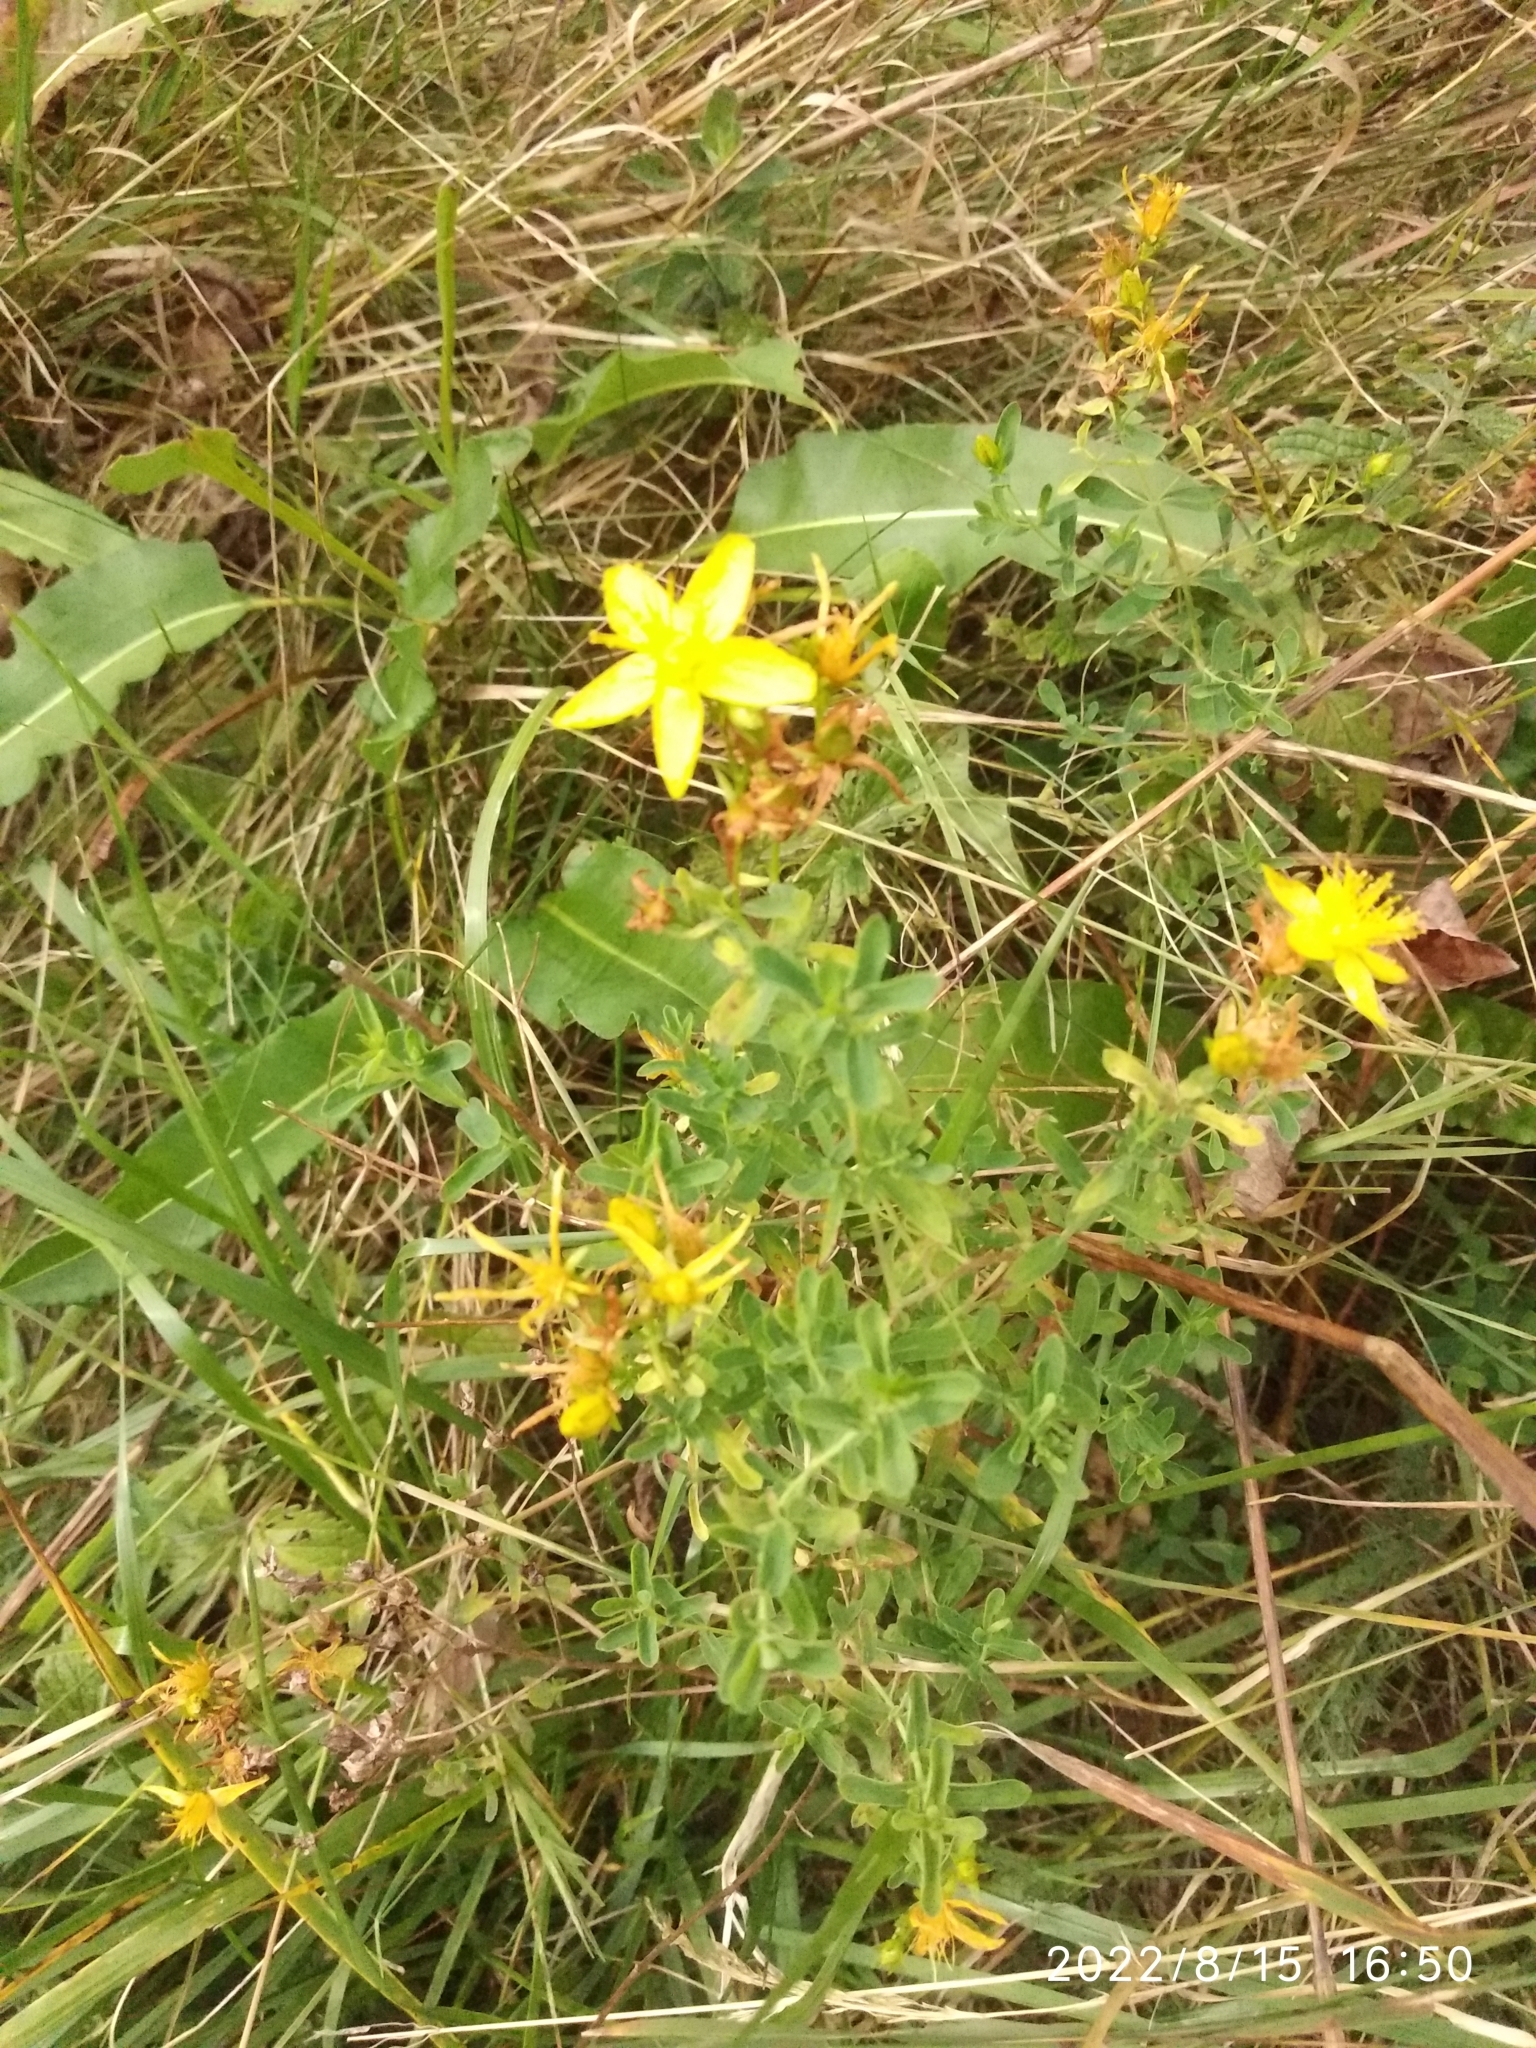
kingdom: Plantae
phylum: Tracheophyta
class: Magnoliopsida
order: Malpighiales
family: Hypericaceae
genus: Hypericum
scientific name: Hypericum perforatum
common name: Common st. johnswort
